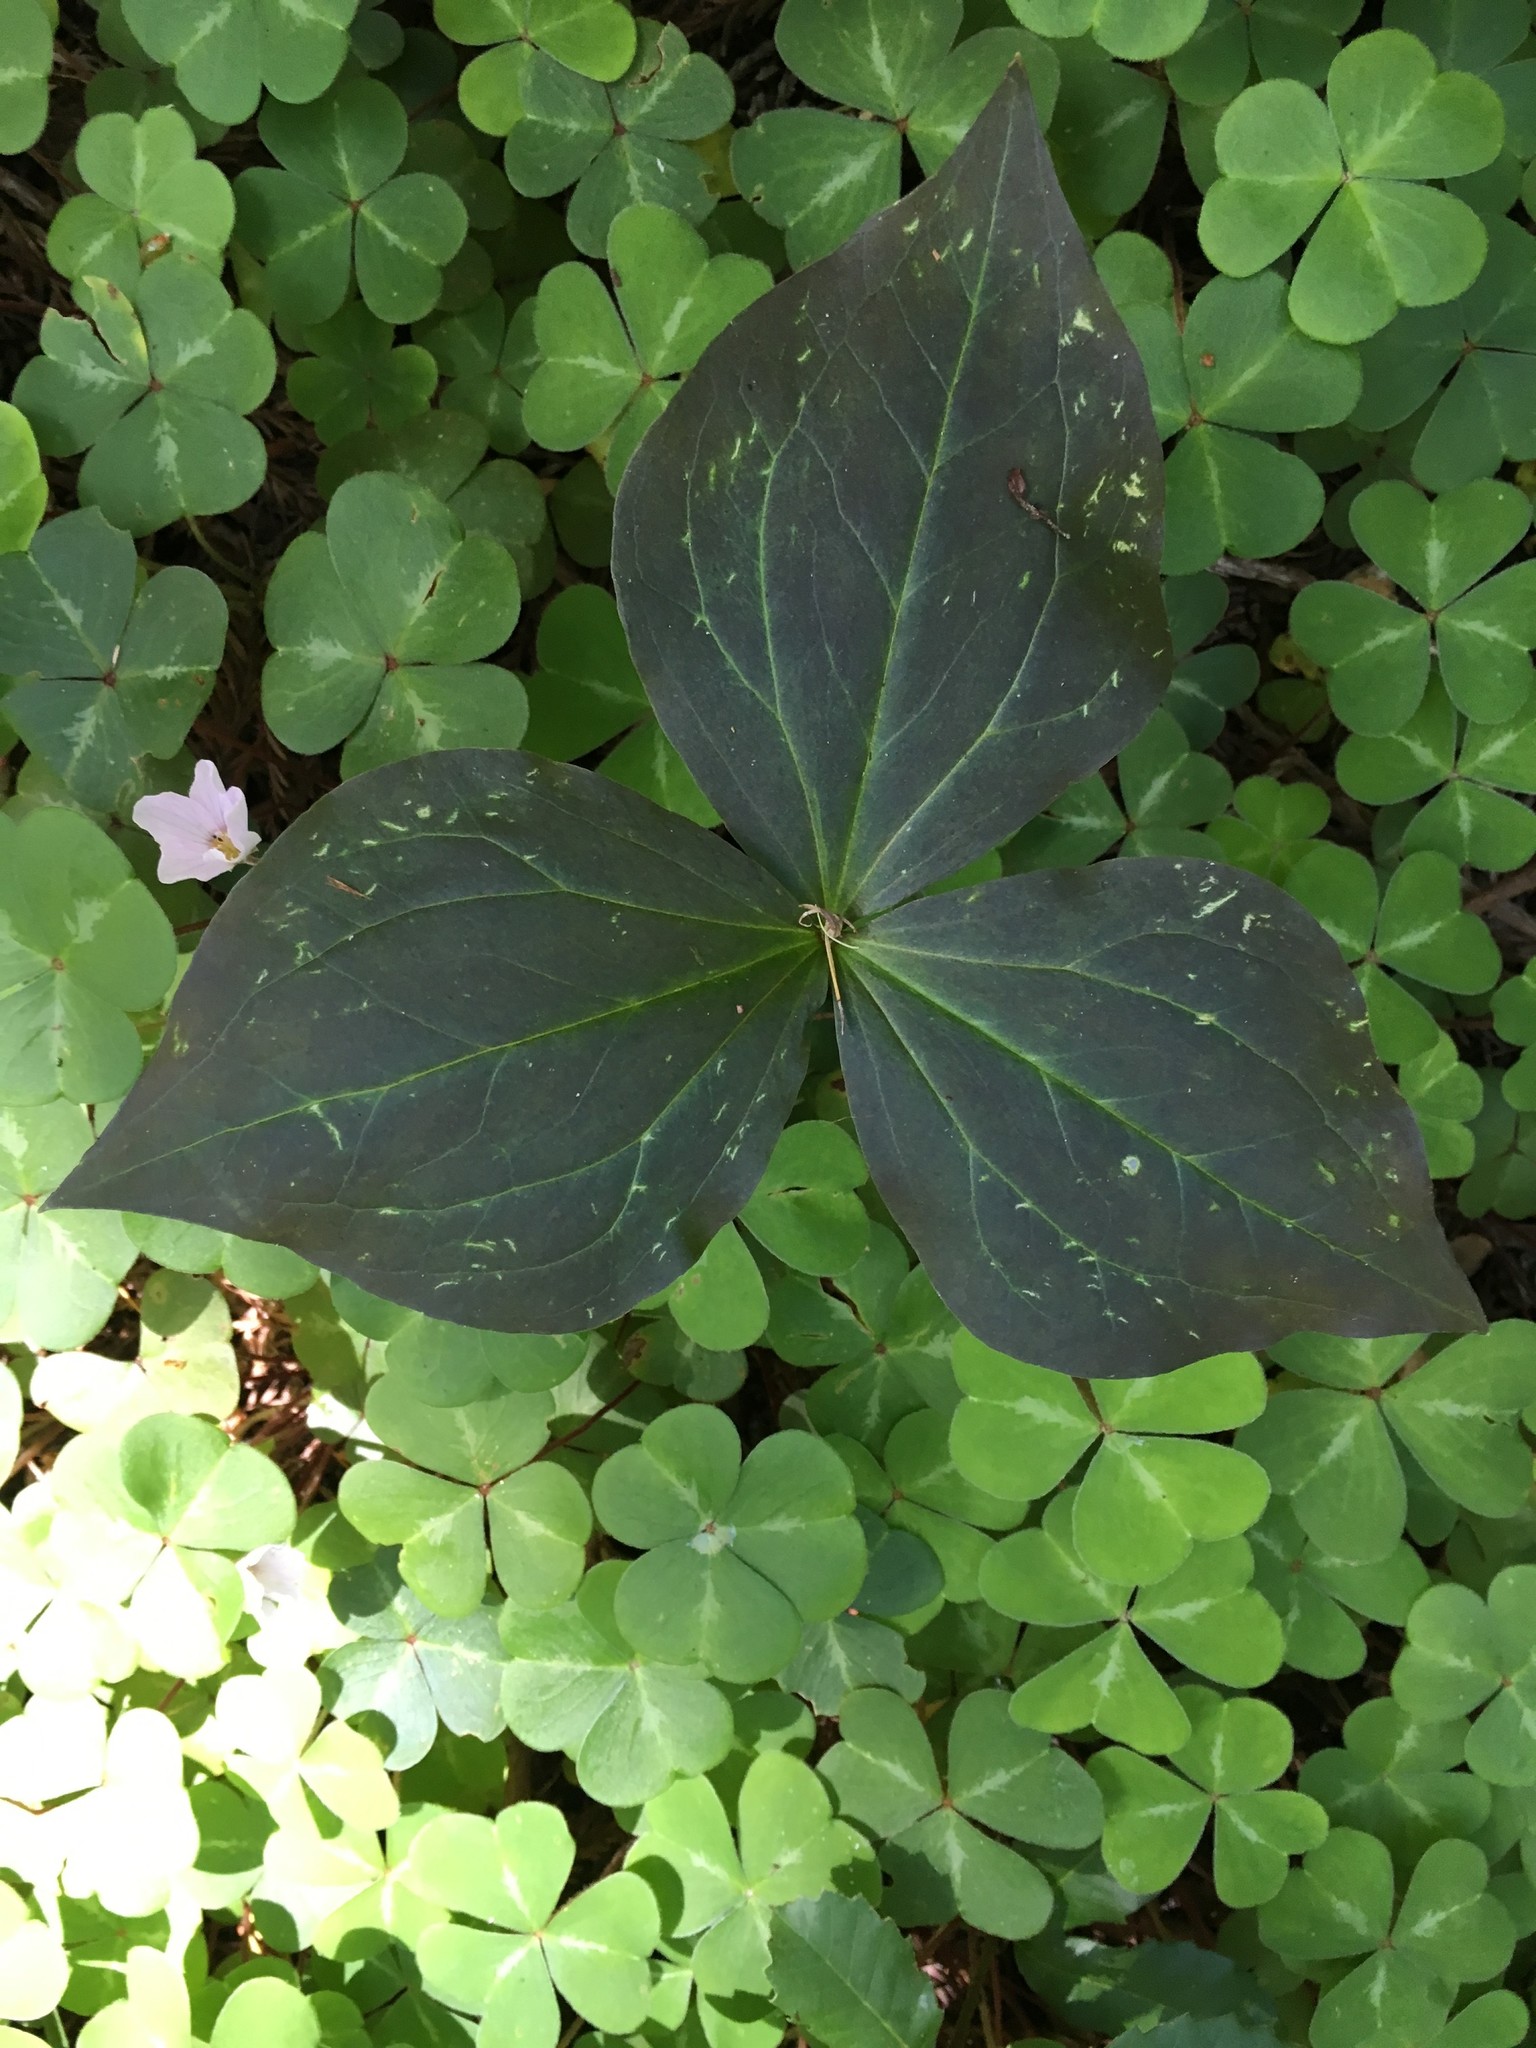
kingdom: Plantae
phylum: Tracheophyta
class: Liliopsida
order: Liliales
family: Melanthiaceae
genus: Trillium
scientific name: Trillium ovatum
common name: Pacific trillium
